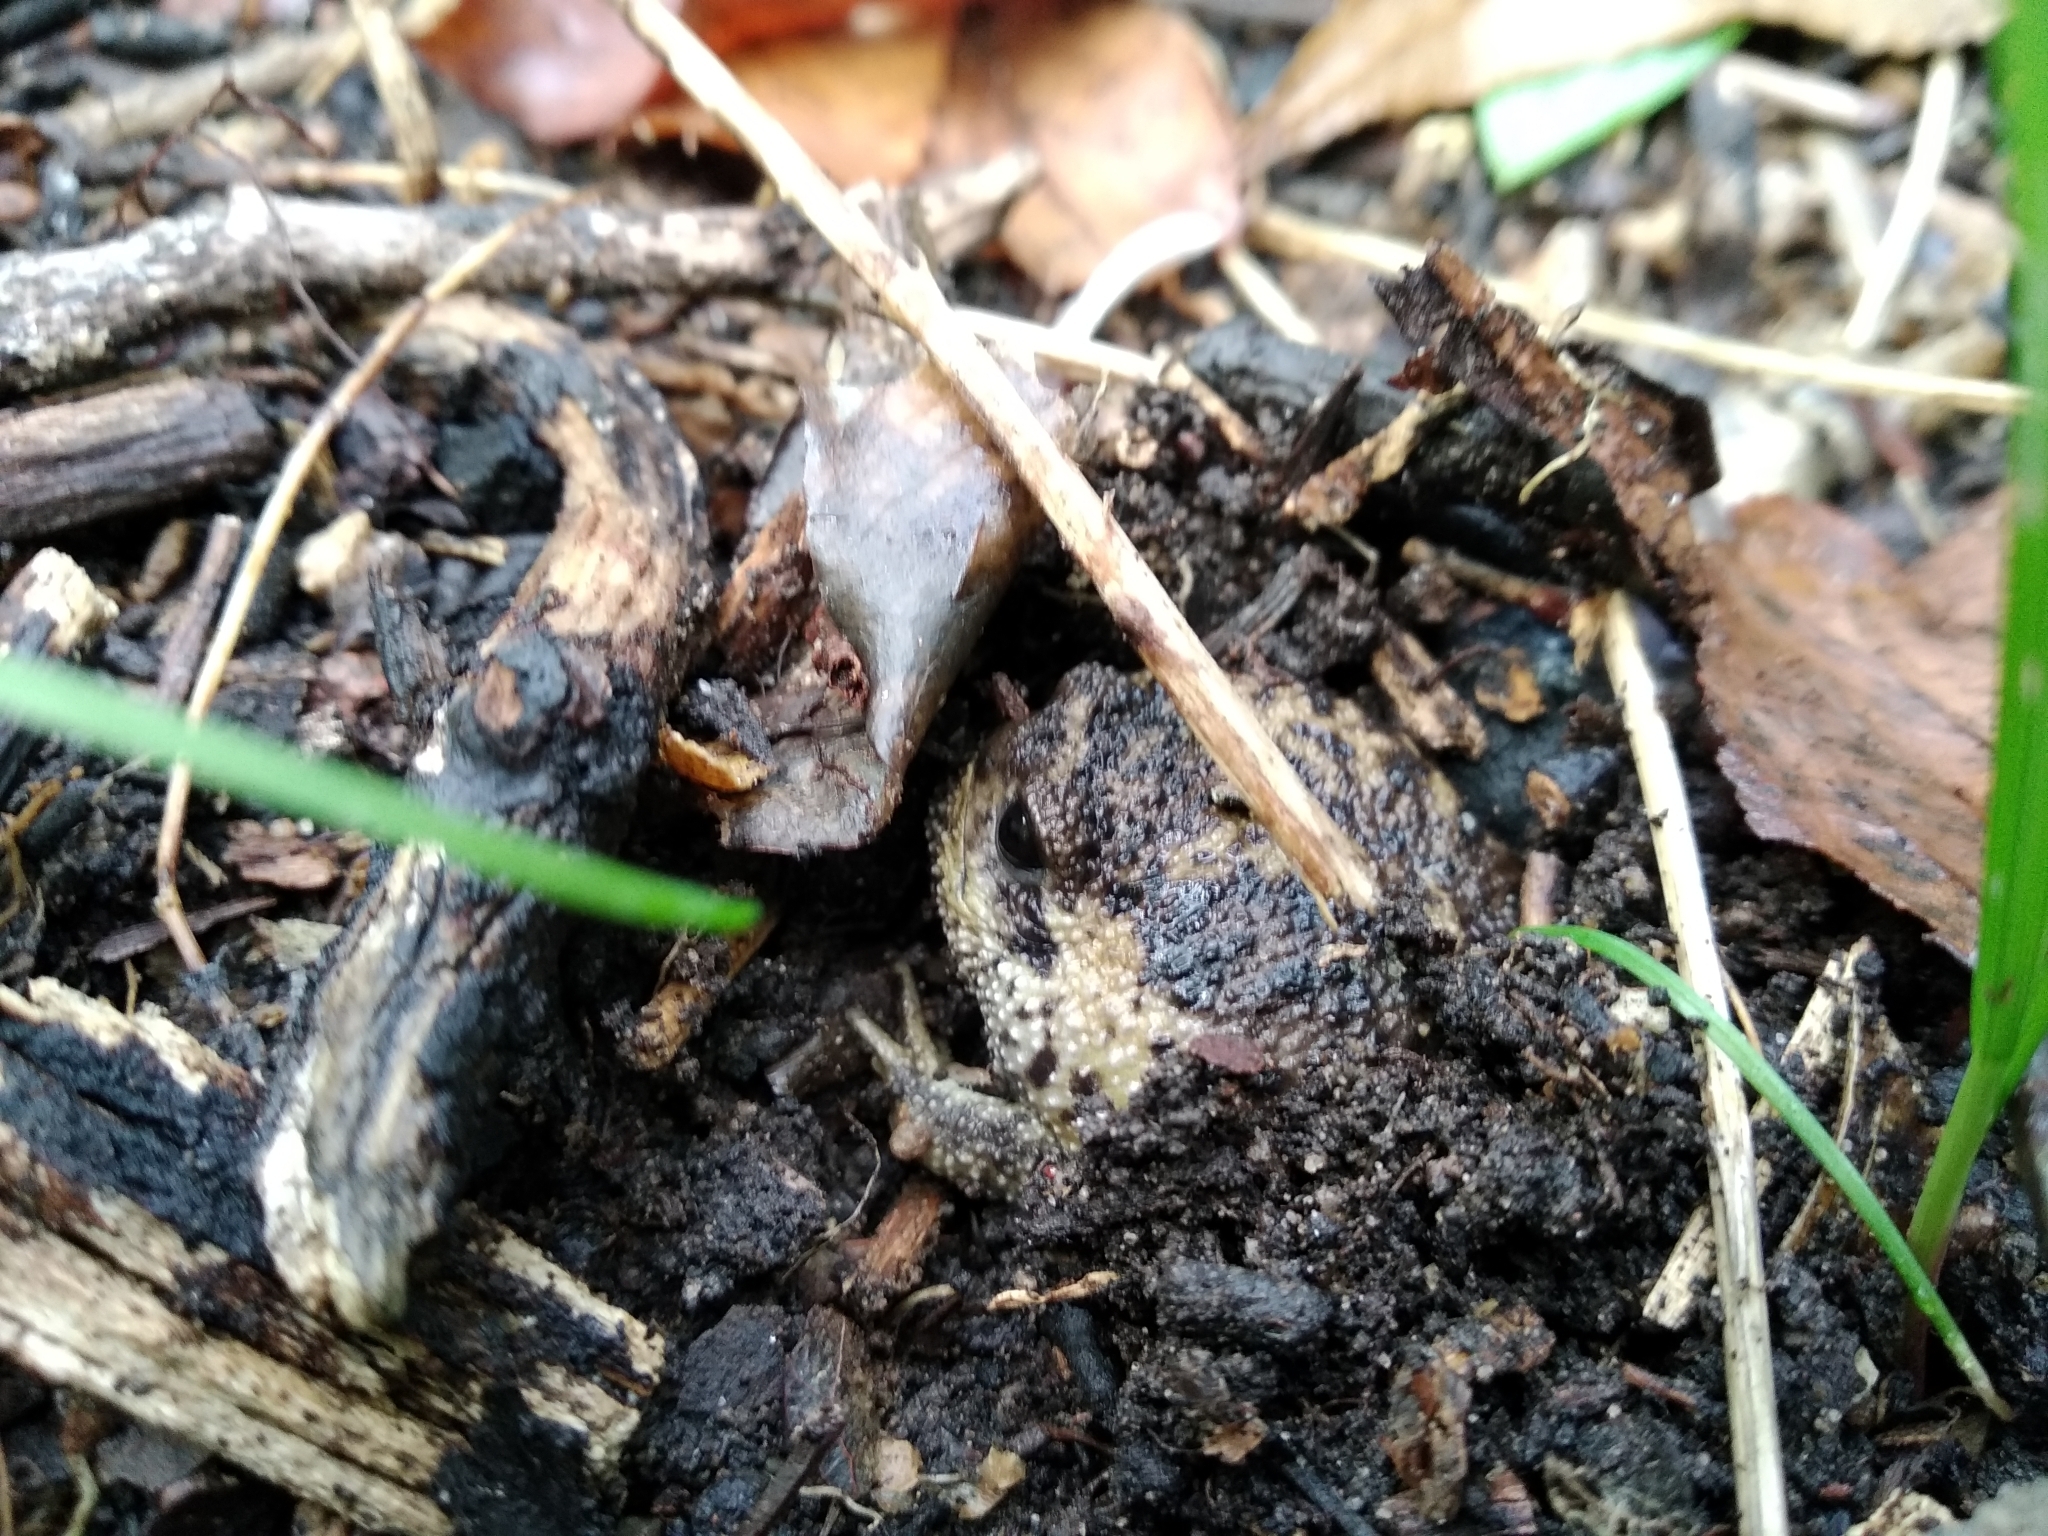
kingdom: Animalia
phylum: Chordata
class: Amphibia
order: Anura
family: Brevicipitidae
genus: Breviceps
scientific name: Breviceps gibbosus
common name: Cape rain frog
